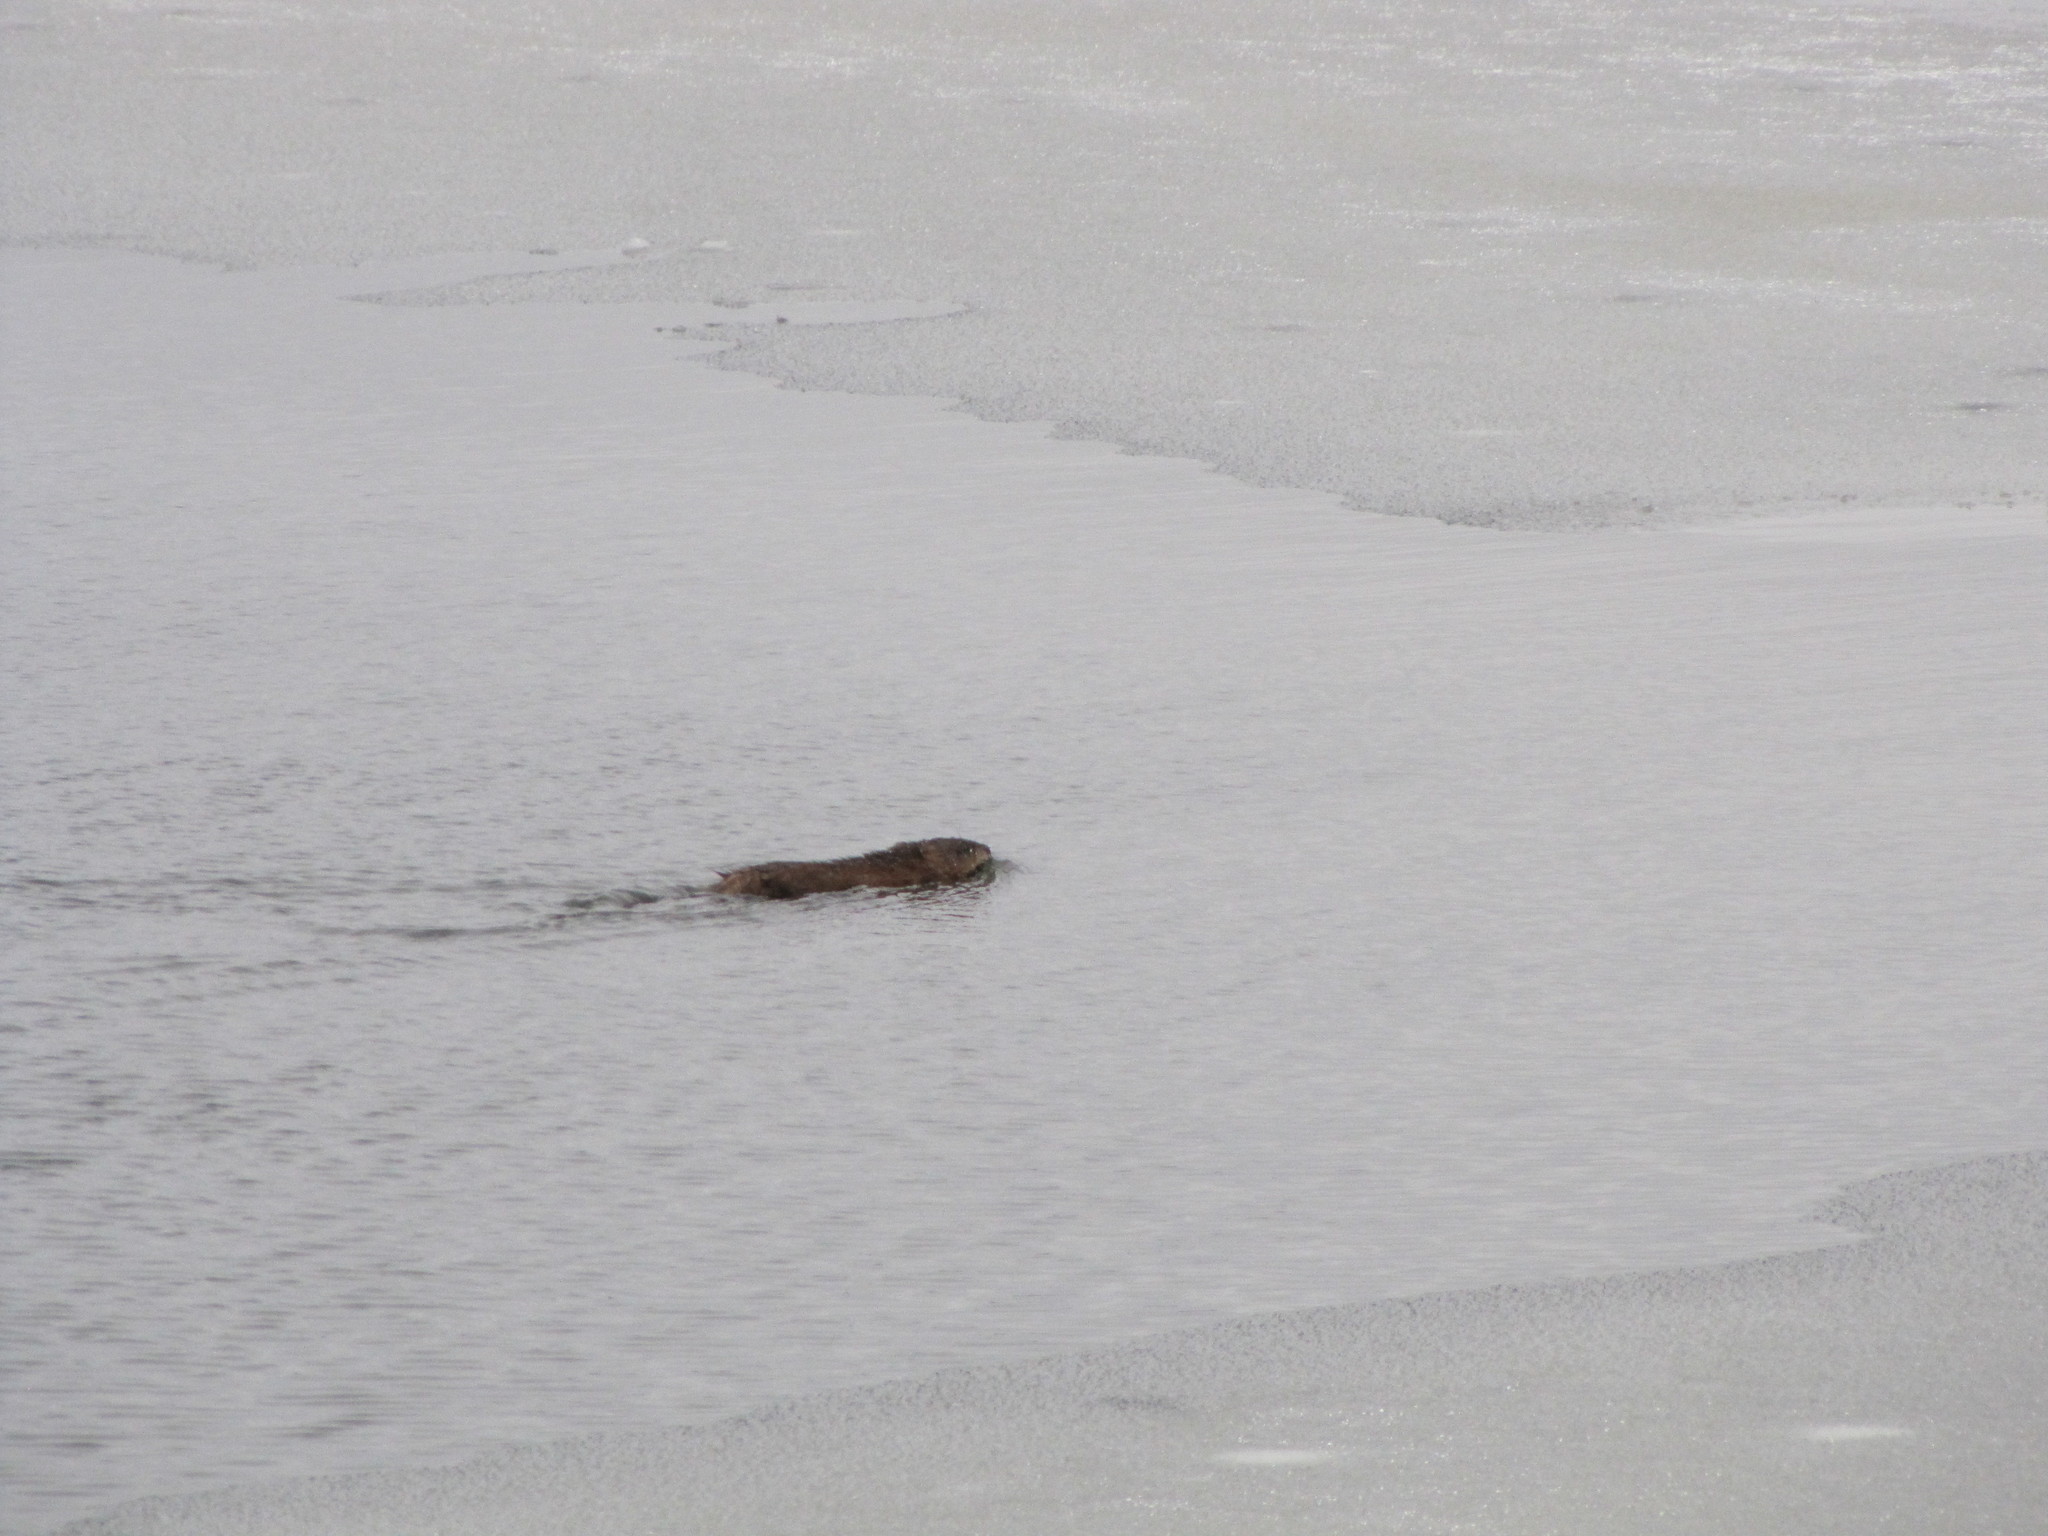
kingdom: Animalia
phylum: Chordata
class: Mammalia
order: Rodentia
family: Cricetidae
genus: Ondatra
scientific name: Ondatra zibethicus
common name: Muskrat
